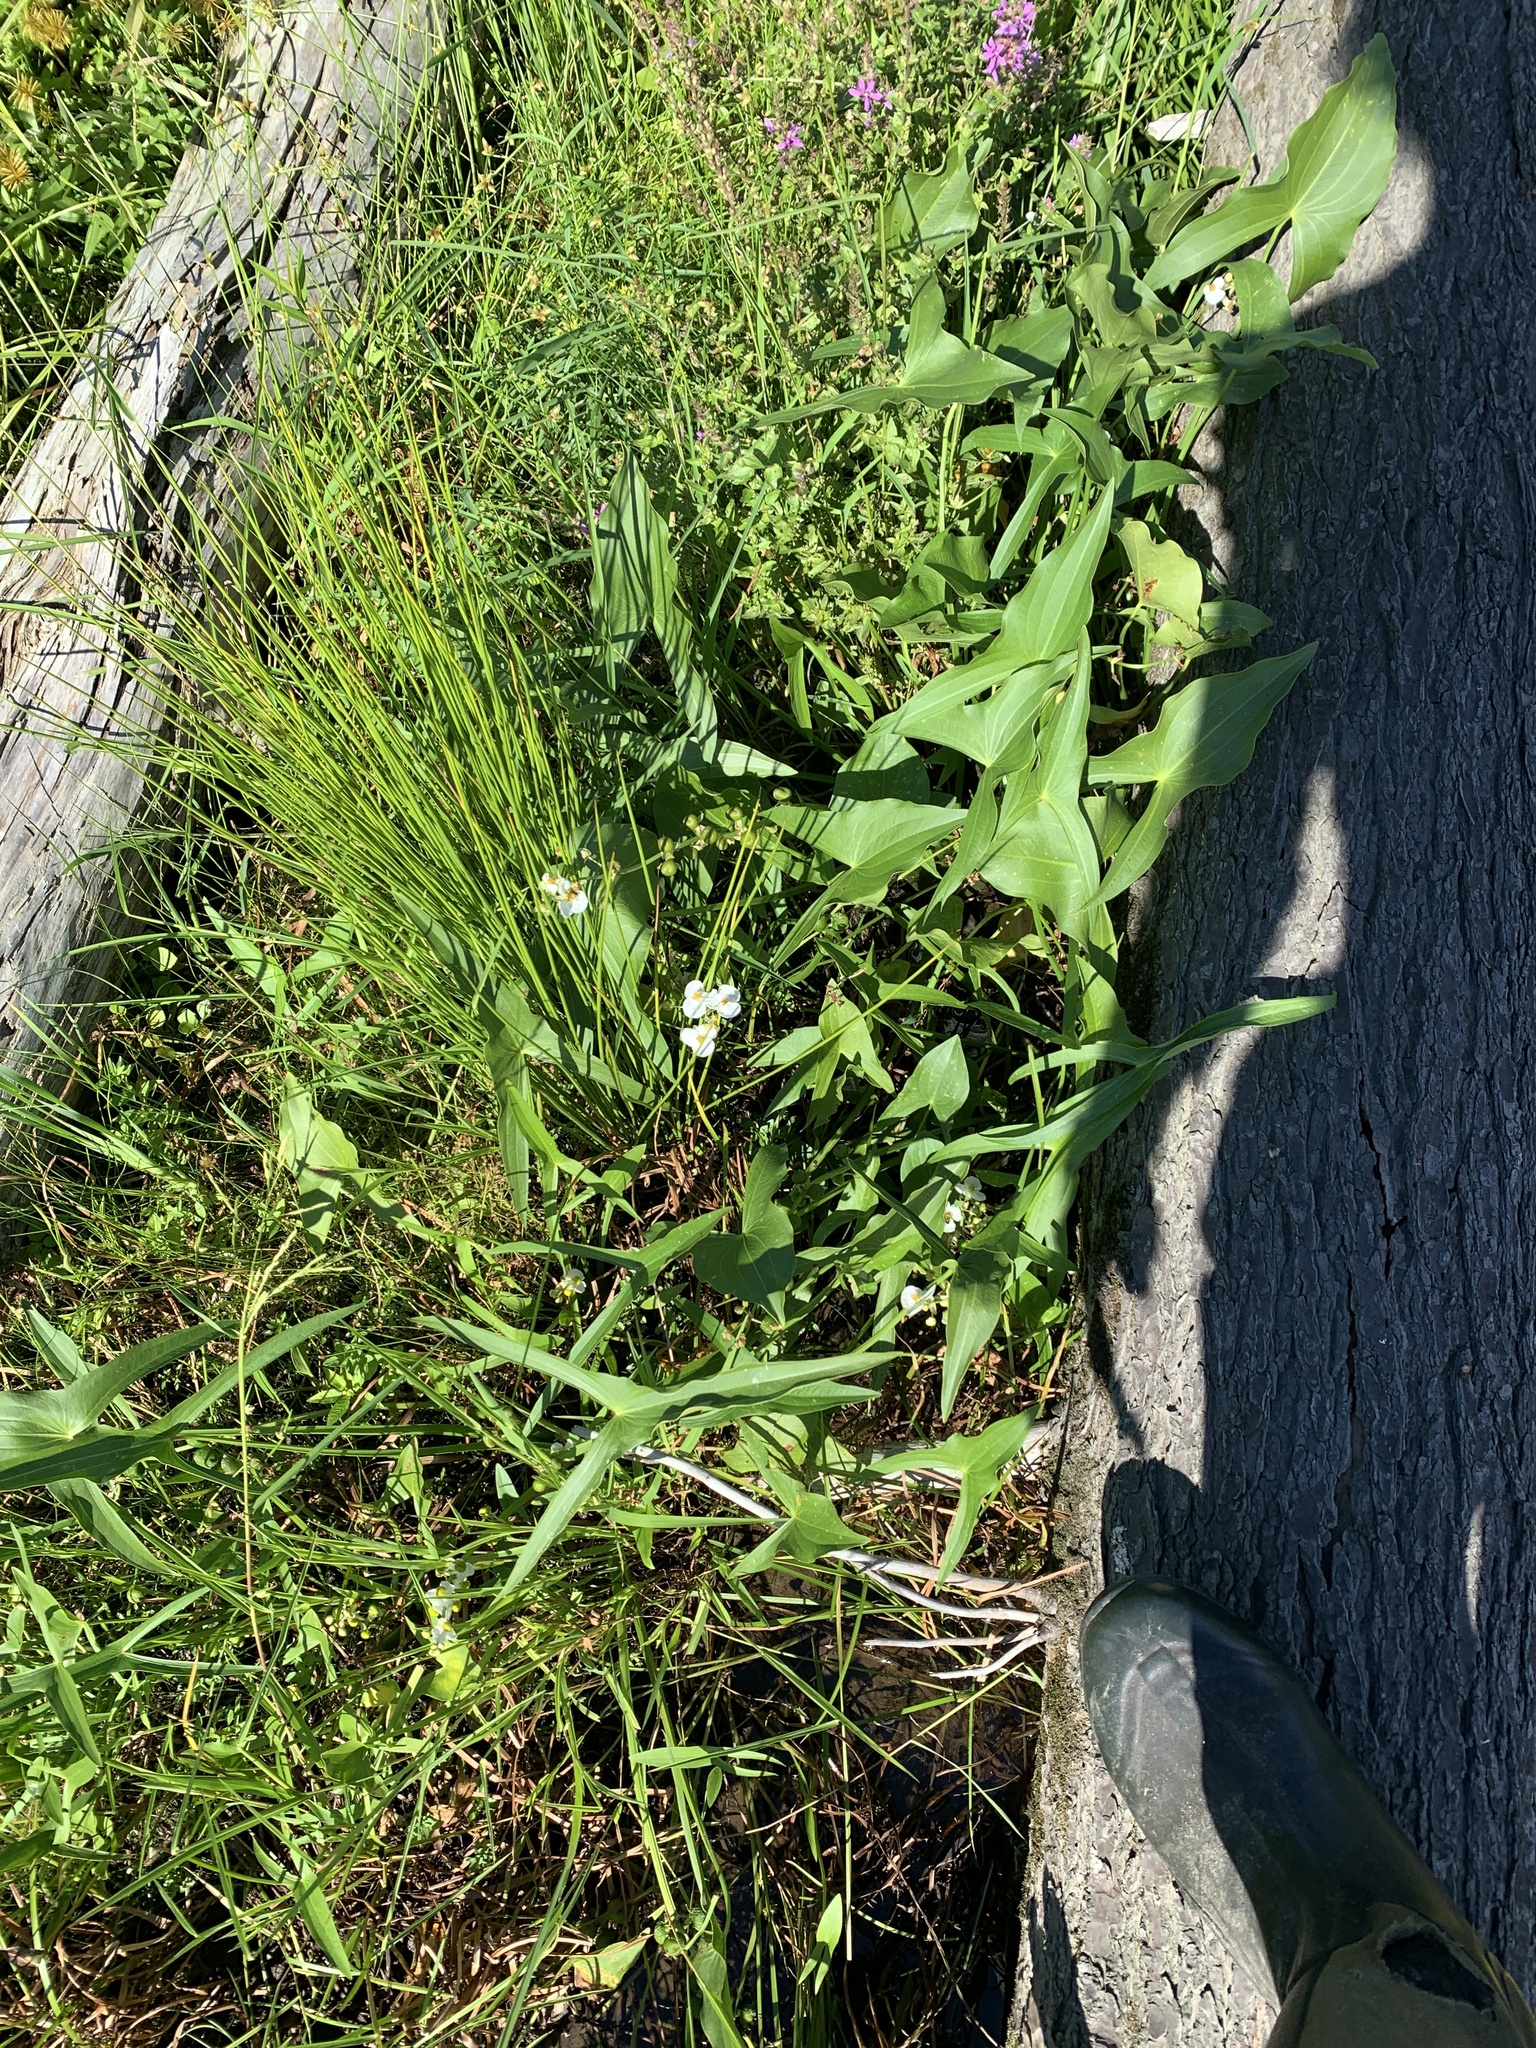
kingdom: Plantae
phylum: Tracheophyta
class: Liliopsida
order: Alismatales
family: Alismataceae
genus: Sagittaria
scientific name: Sagittaria latifolia
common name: Duck-potato
